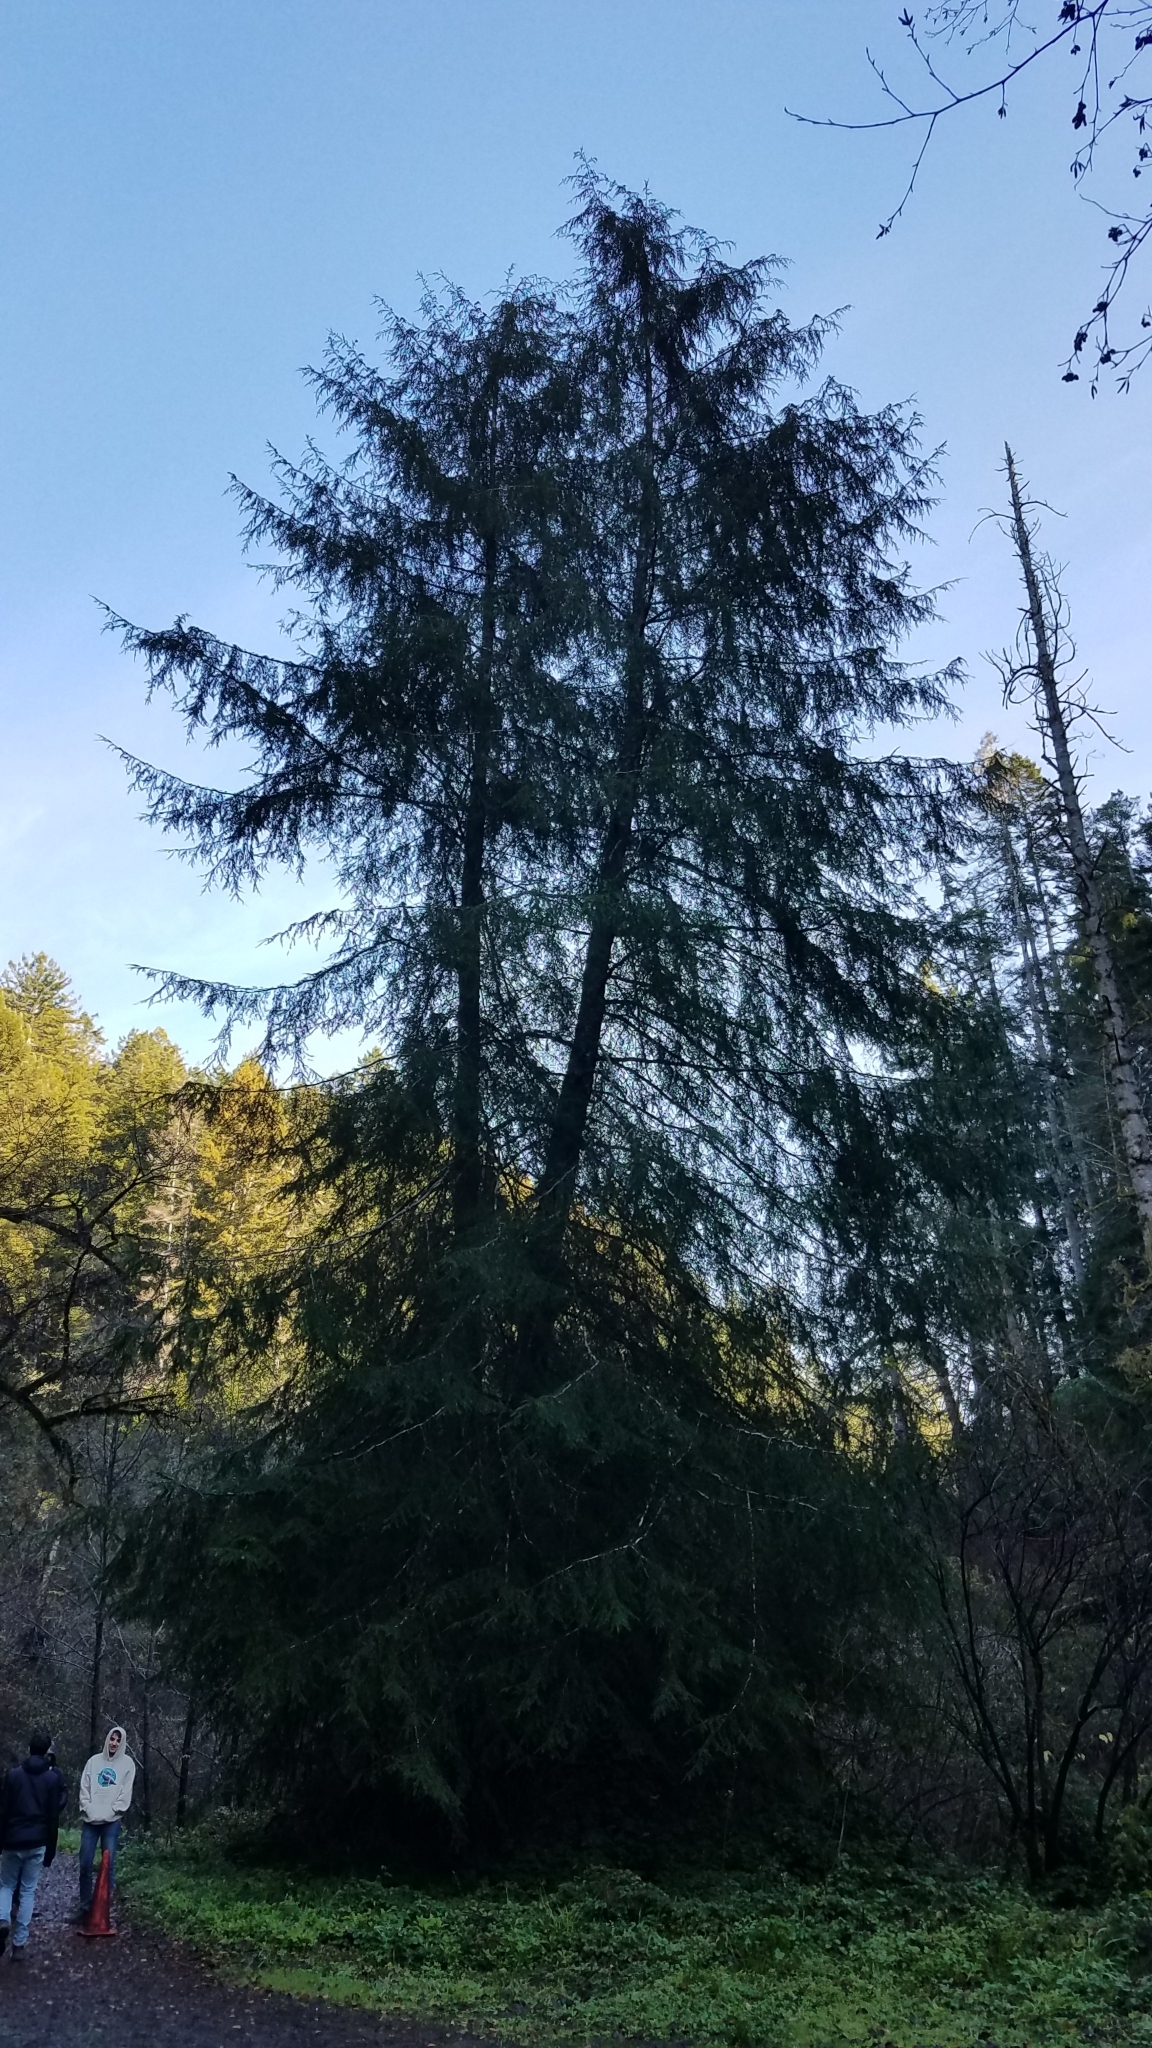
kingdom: Plantae
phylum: Tracheophyta
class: Pinopsida
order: Pinales
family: Pinaceae
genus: Tsuga
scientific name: Tsuga heterophylla
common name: Western hemlock
